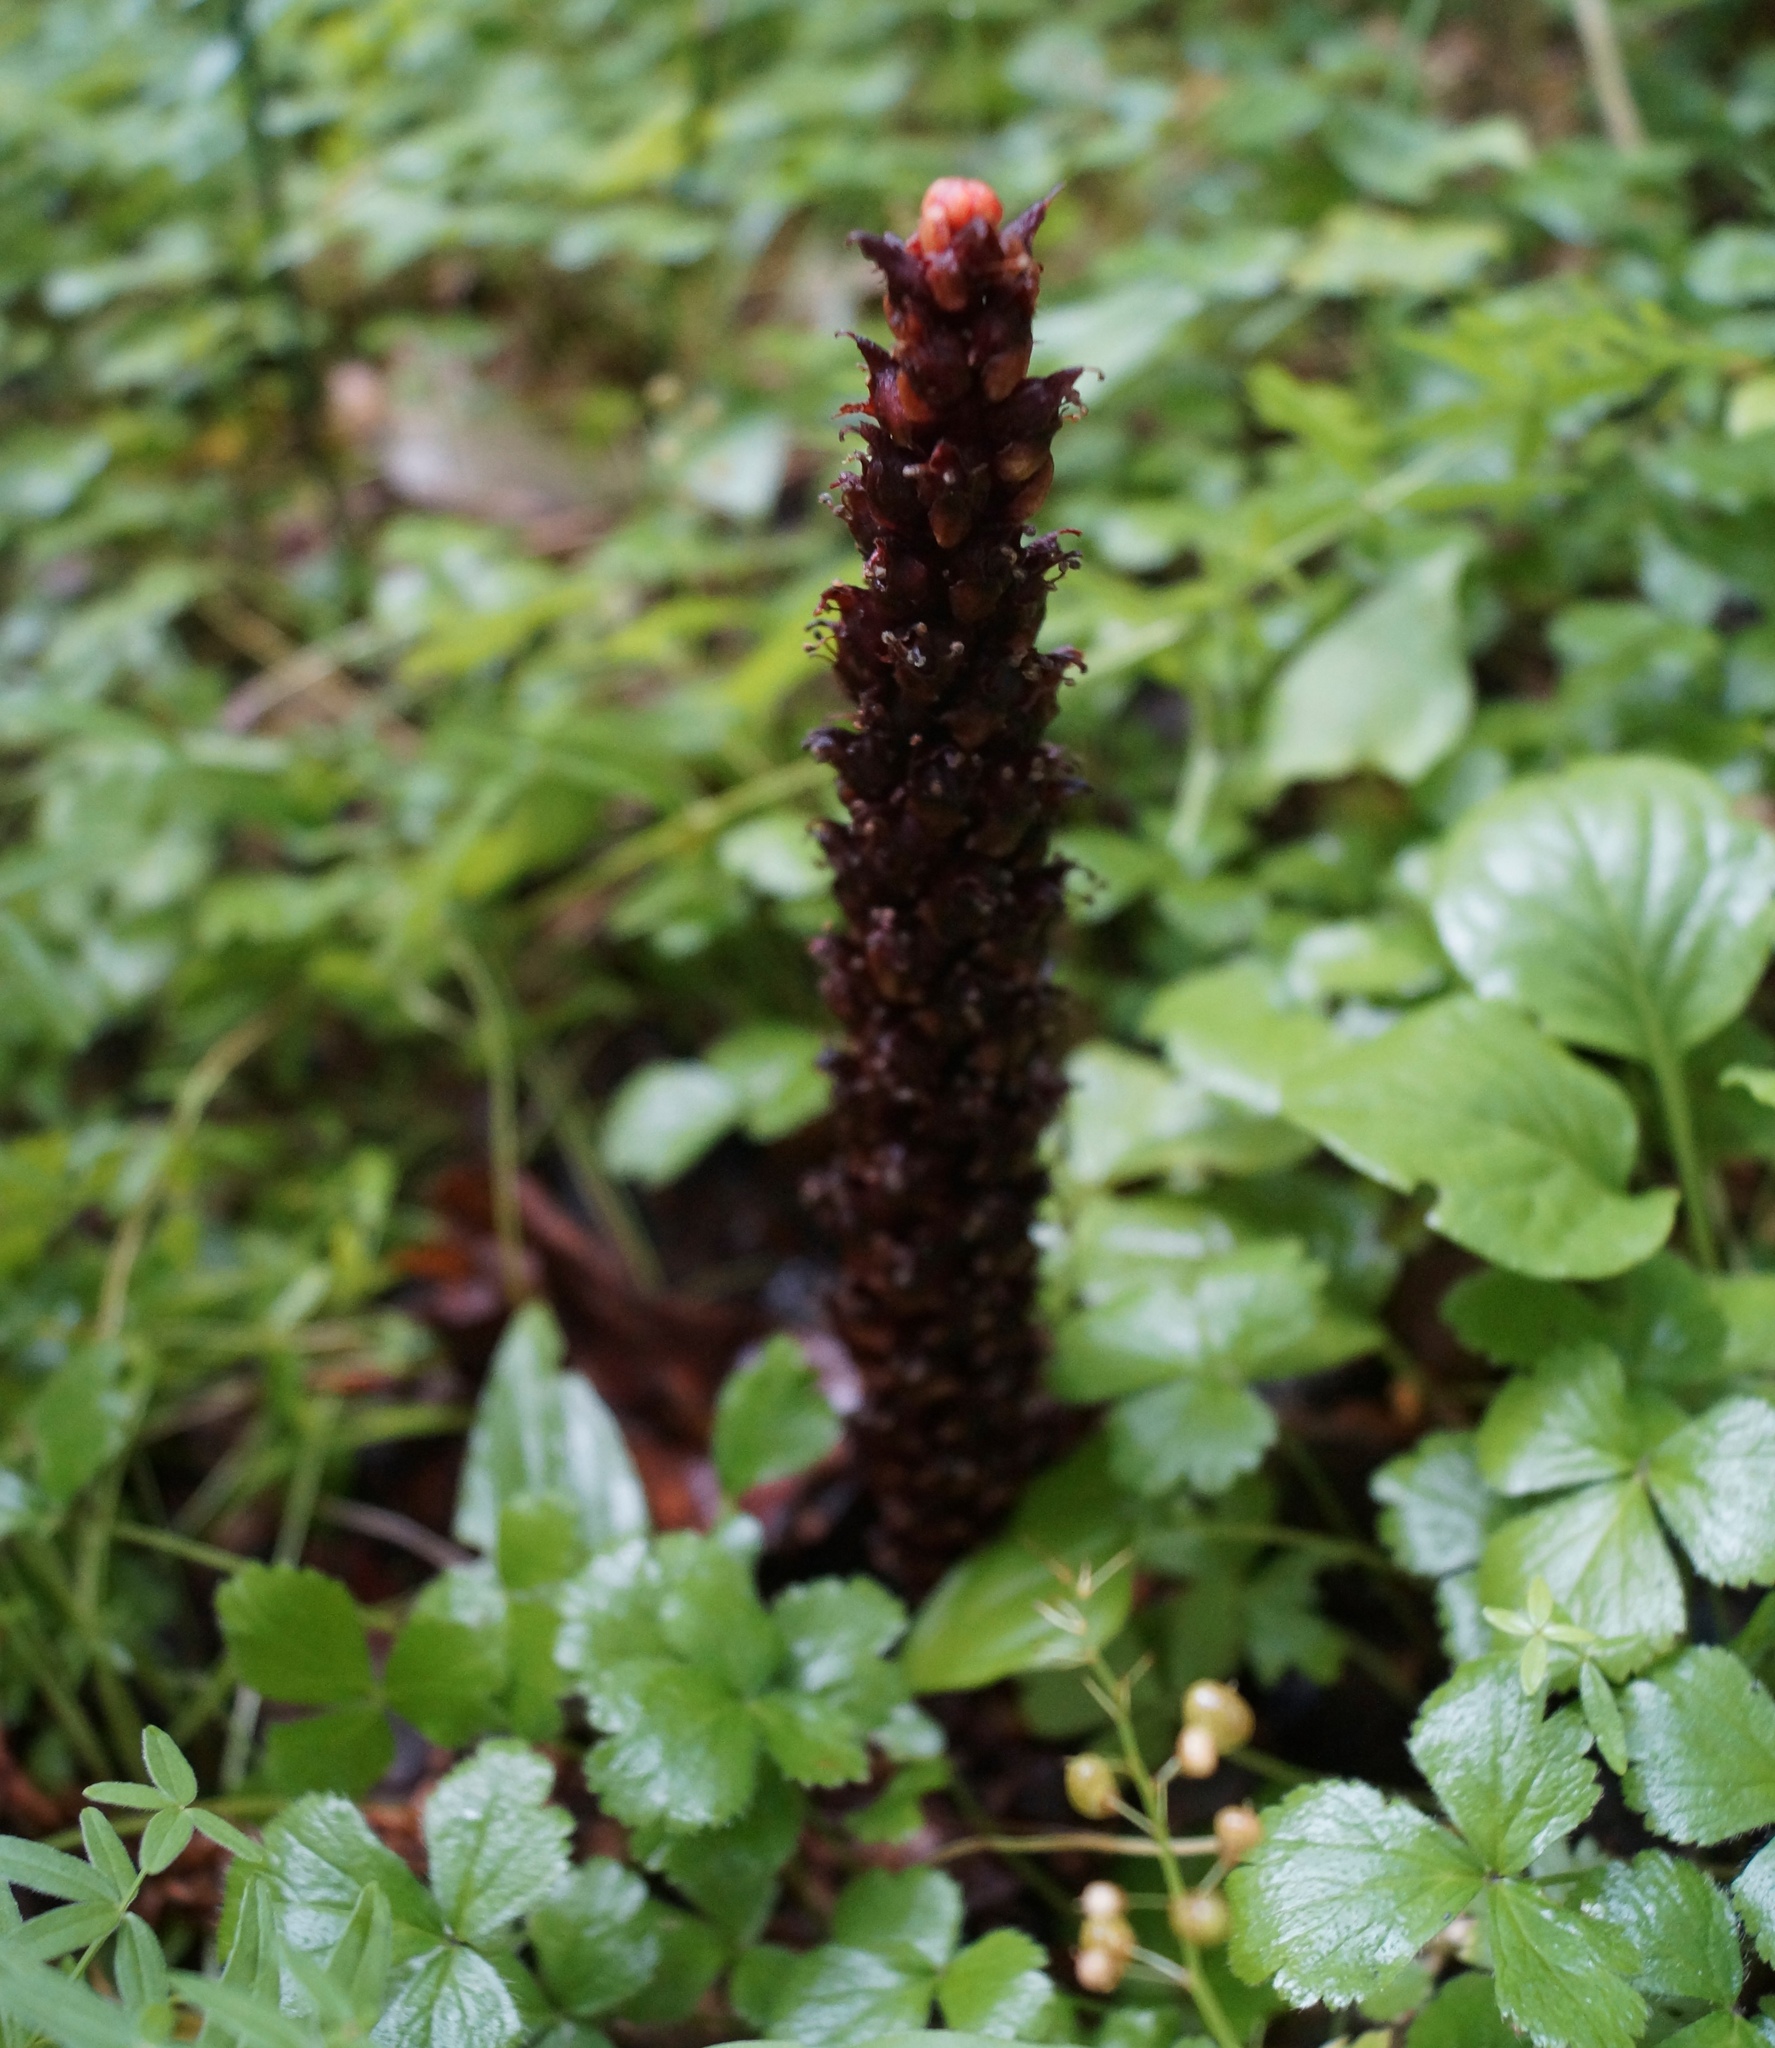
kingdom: Plantae
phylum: Tracheophyta
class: Magnoliopsida
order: Lamiales
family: Orobanchaceae
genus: Boschniakia
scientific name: Boschniakia rossica
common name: Poque
